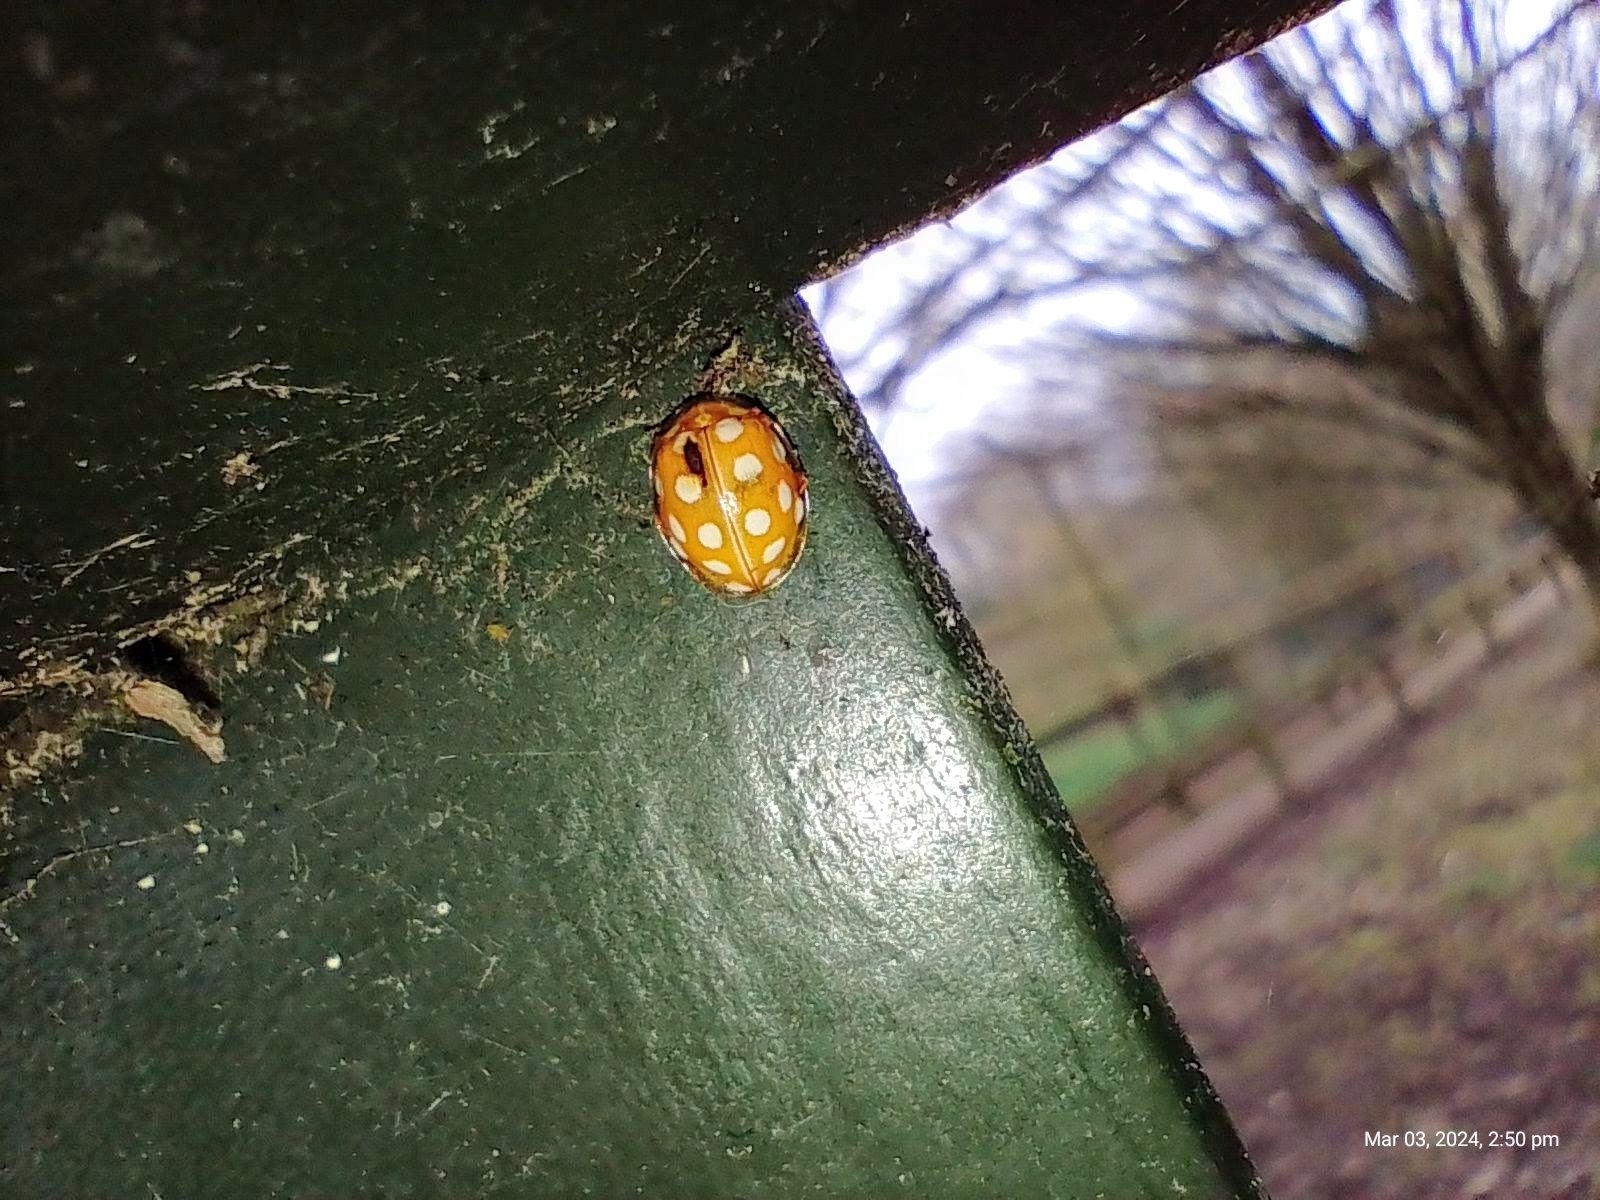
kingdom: Animalia
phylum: Arthropoda
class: Insecta
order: Coleoptera
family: Coccinellidae
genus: Halyzia
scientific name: Halyzia sedecimguttata
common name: Orange ladybird
